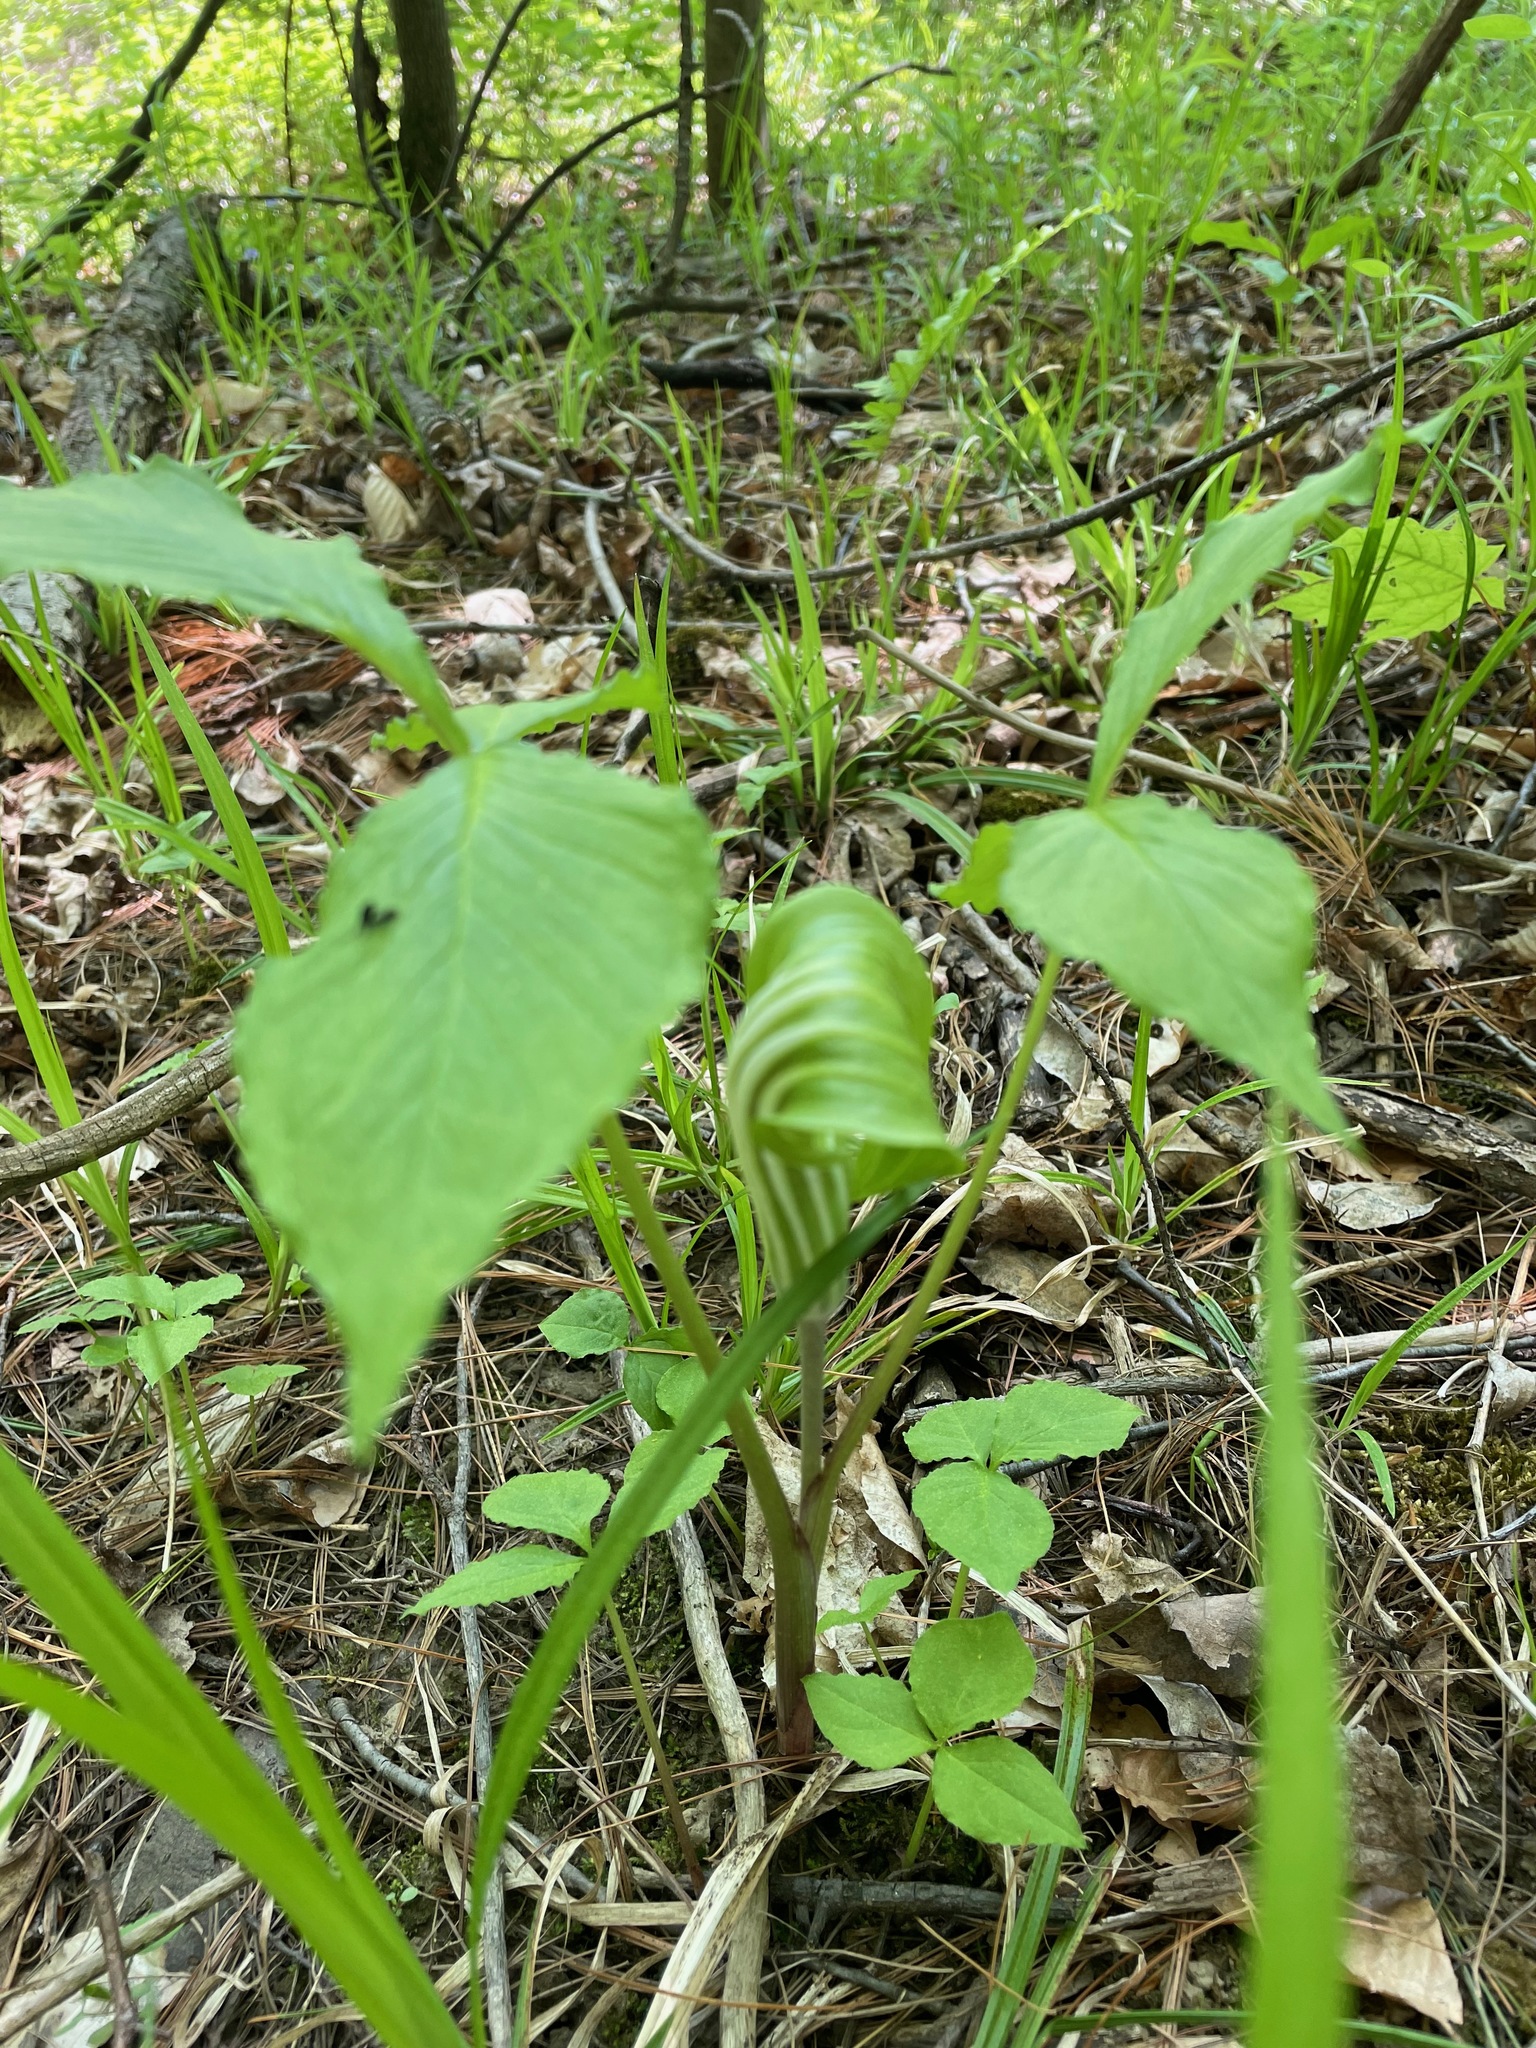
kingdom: Plantae
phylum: Tracheophyta
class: Liliopsida
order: Alismatales
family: Araceae
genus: Arisaema
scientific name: Arisaema stewardsonii
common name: Swamp jack-in-the-pulpit
